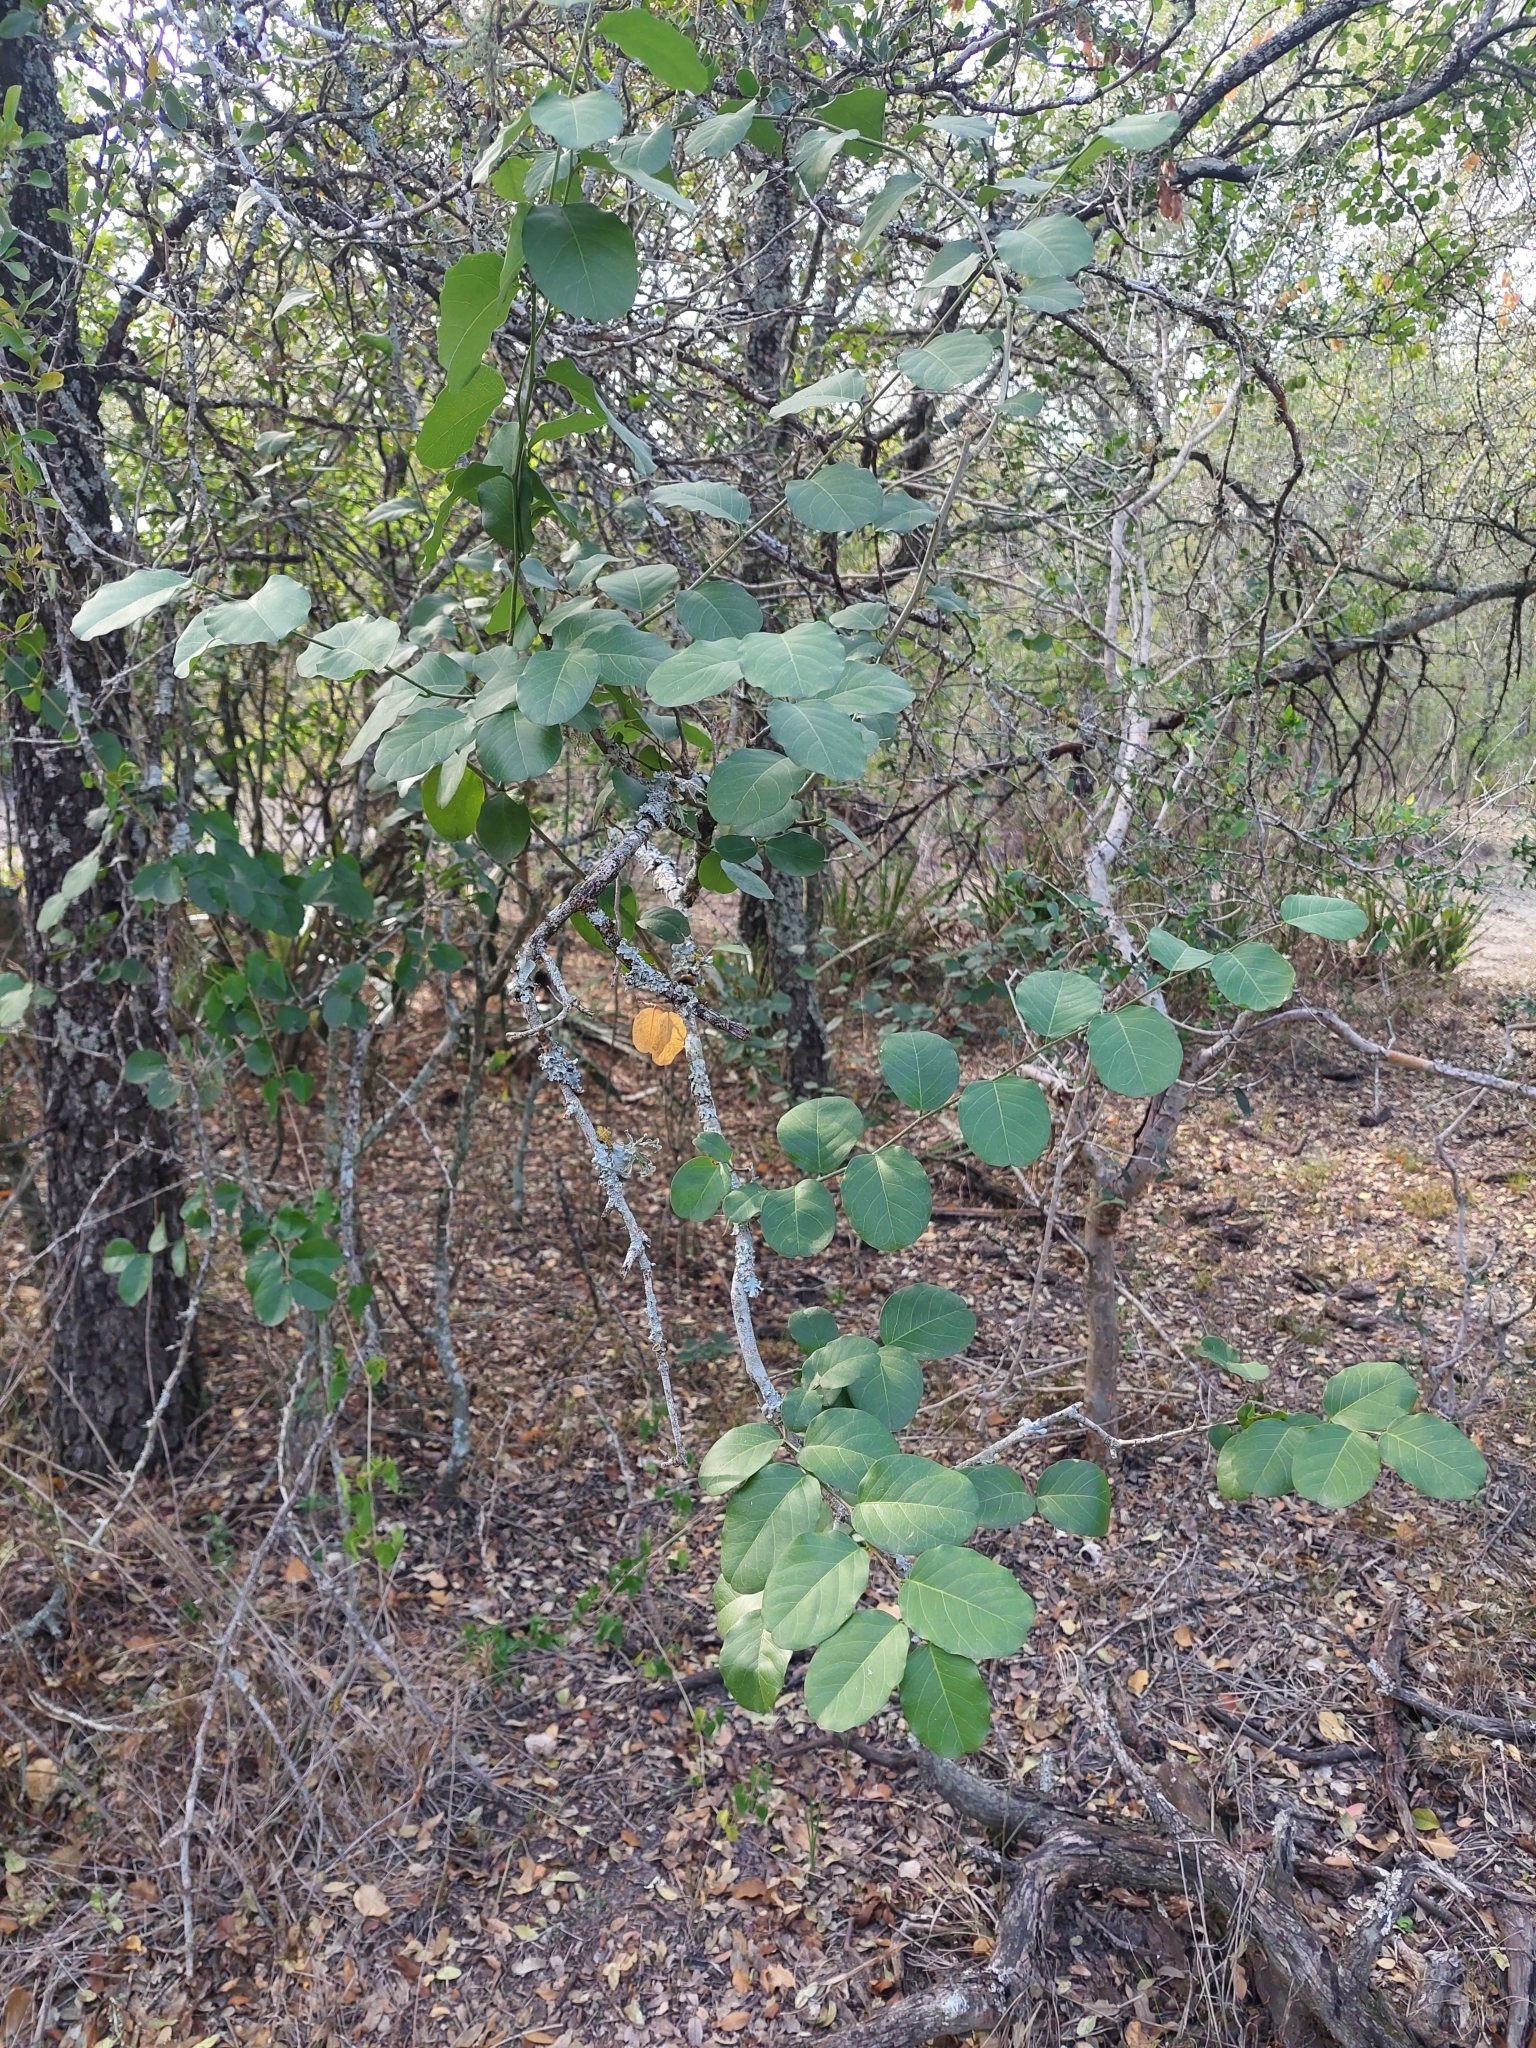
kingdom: Plantae
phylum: Tracheophyta
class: Magnoliopsida
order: Brassicales
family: Capparaceae
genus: Cynophalla
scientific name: Cynophalla retusa
